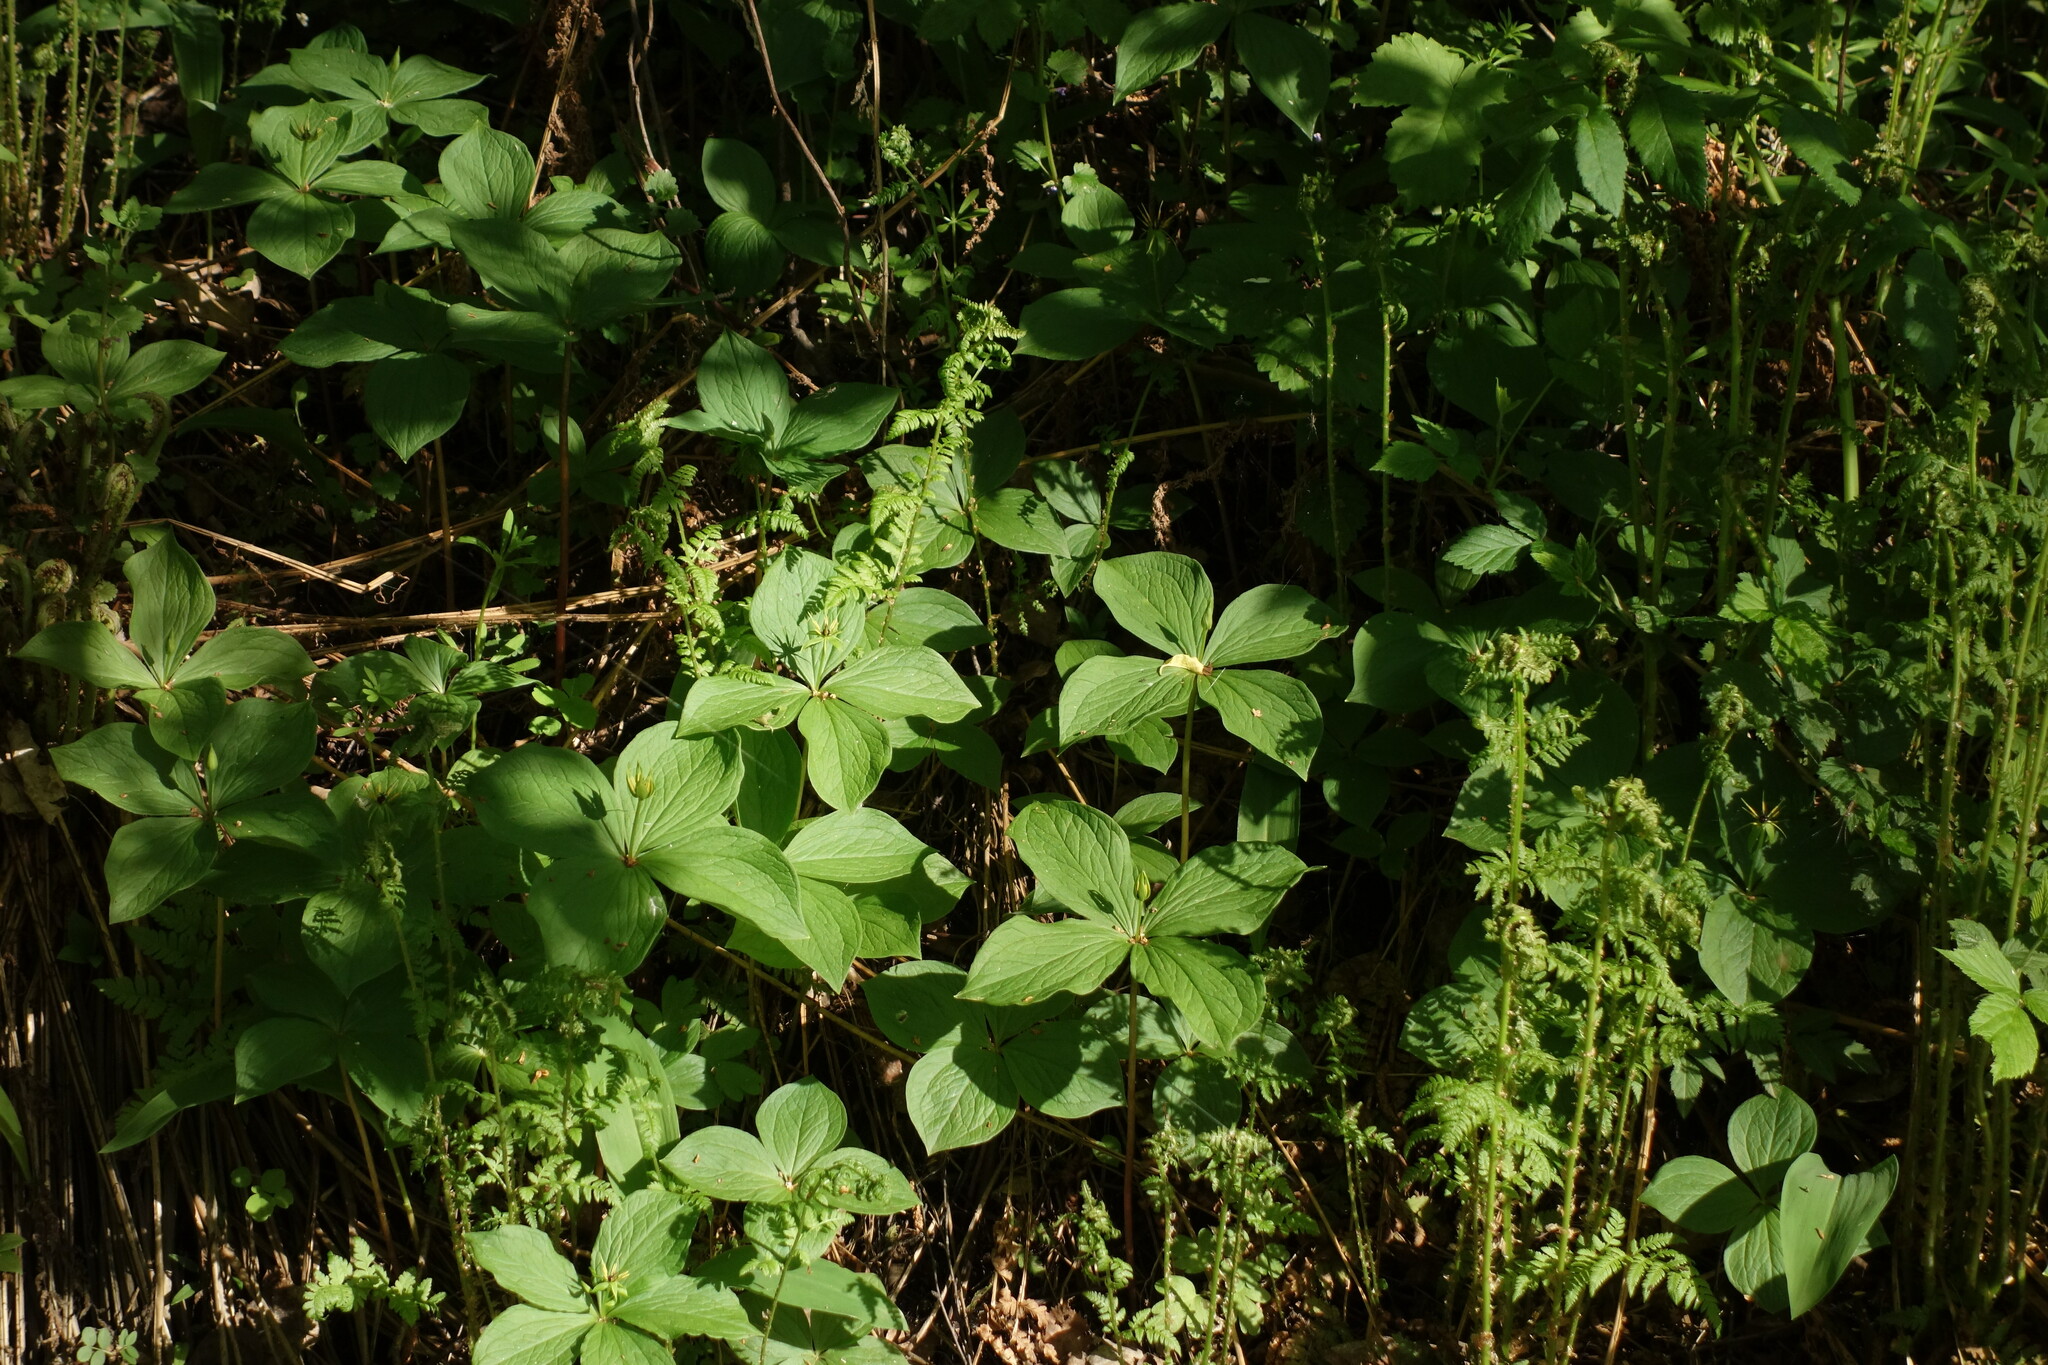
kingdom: Plantae
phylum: Tracheophyta
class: Liliopsida
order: Liliales
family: Melanthiaceae
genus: Paris
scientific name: Paris quadrifolia
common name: Herb-paris
